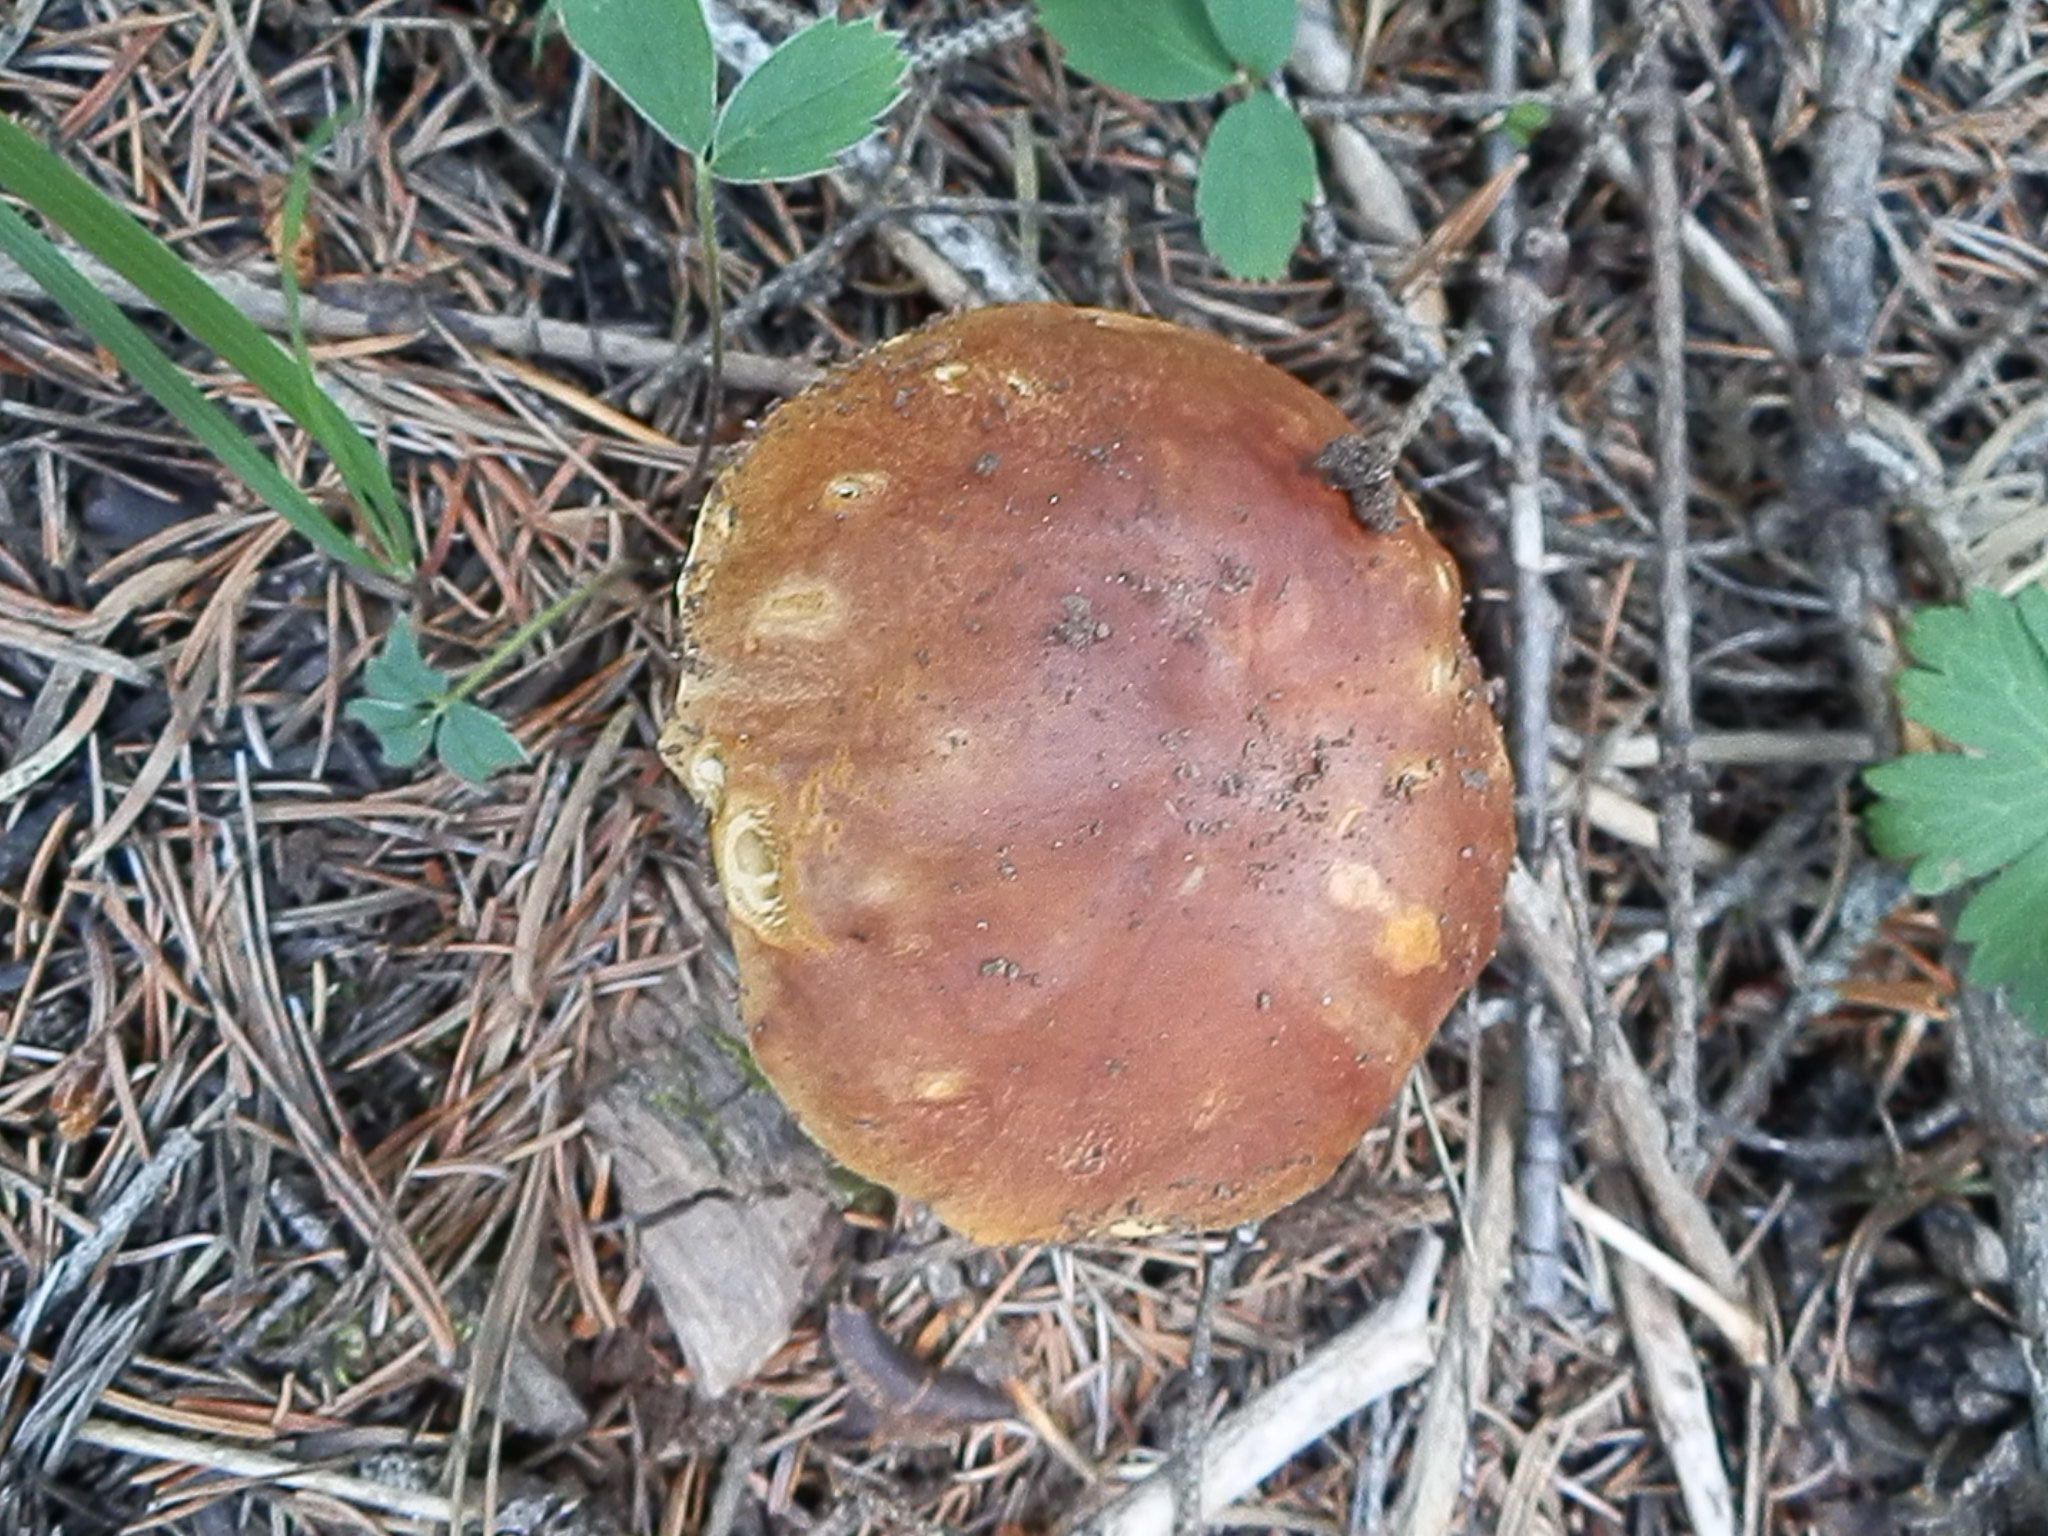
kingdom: Fungi
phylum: Basidiomycota
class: Agaricomycetes
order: Boletales
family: Boletaceae
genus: Boletus
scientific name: Boletus rubriceps
